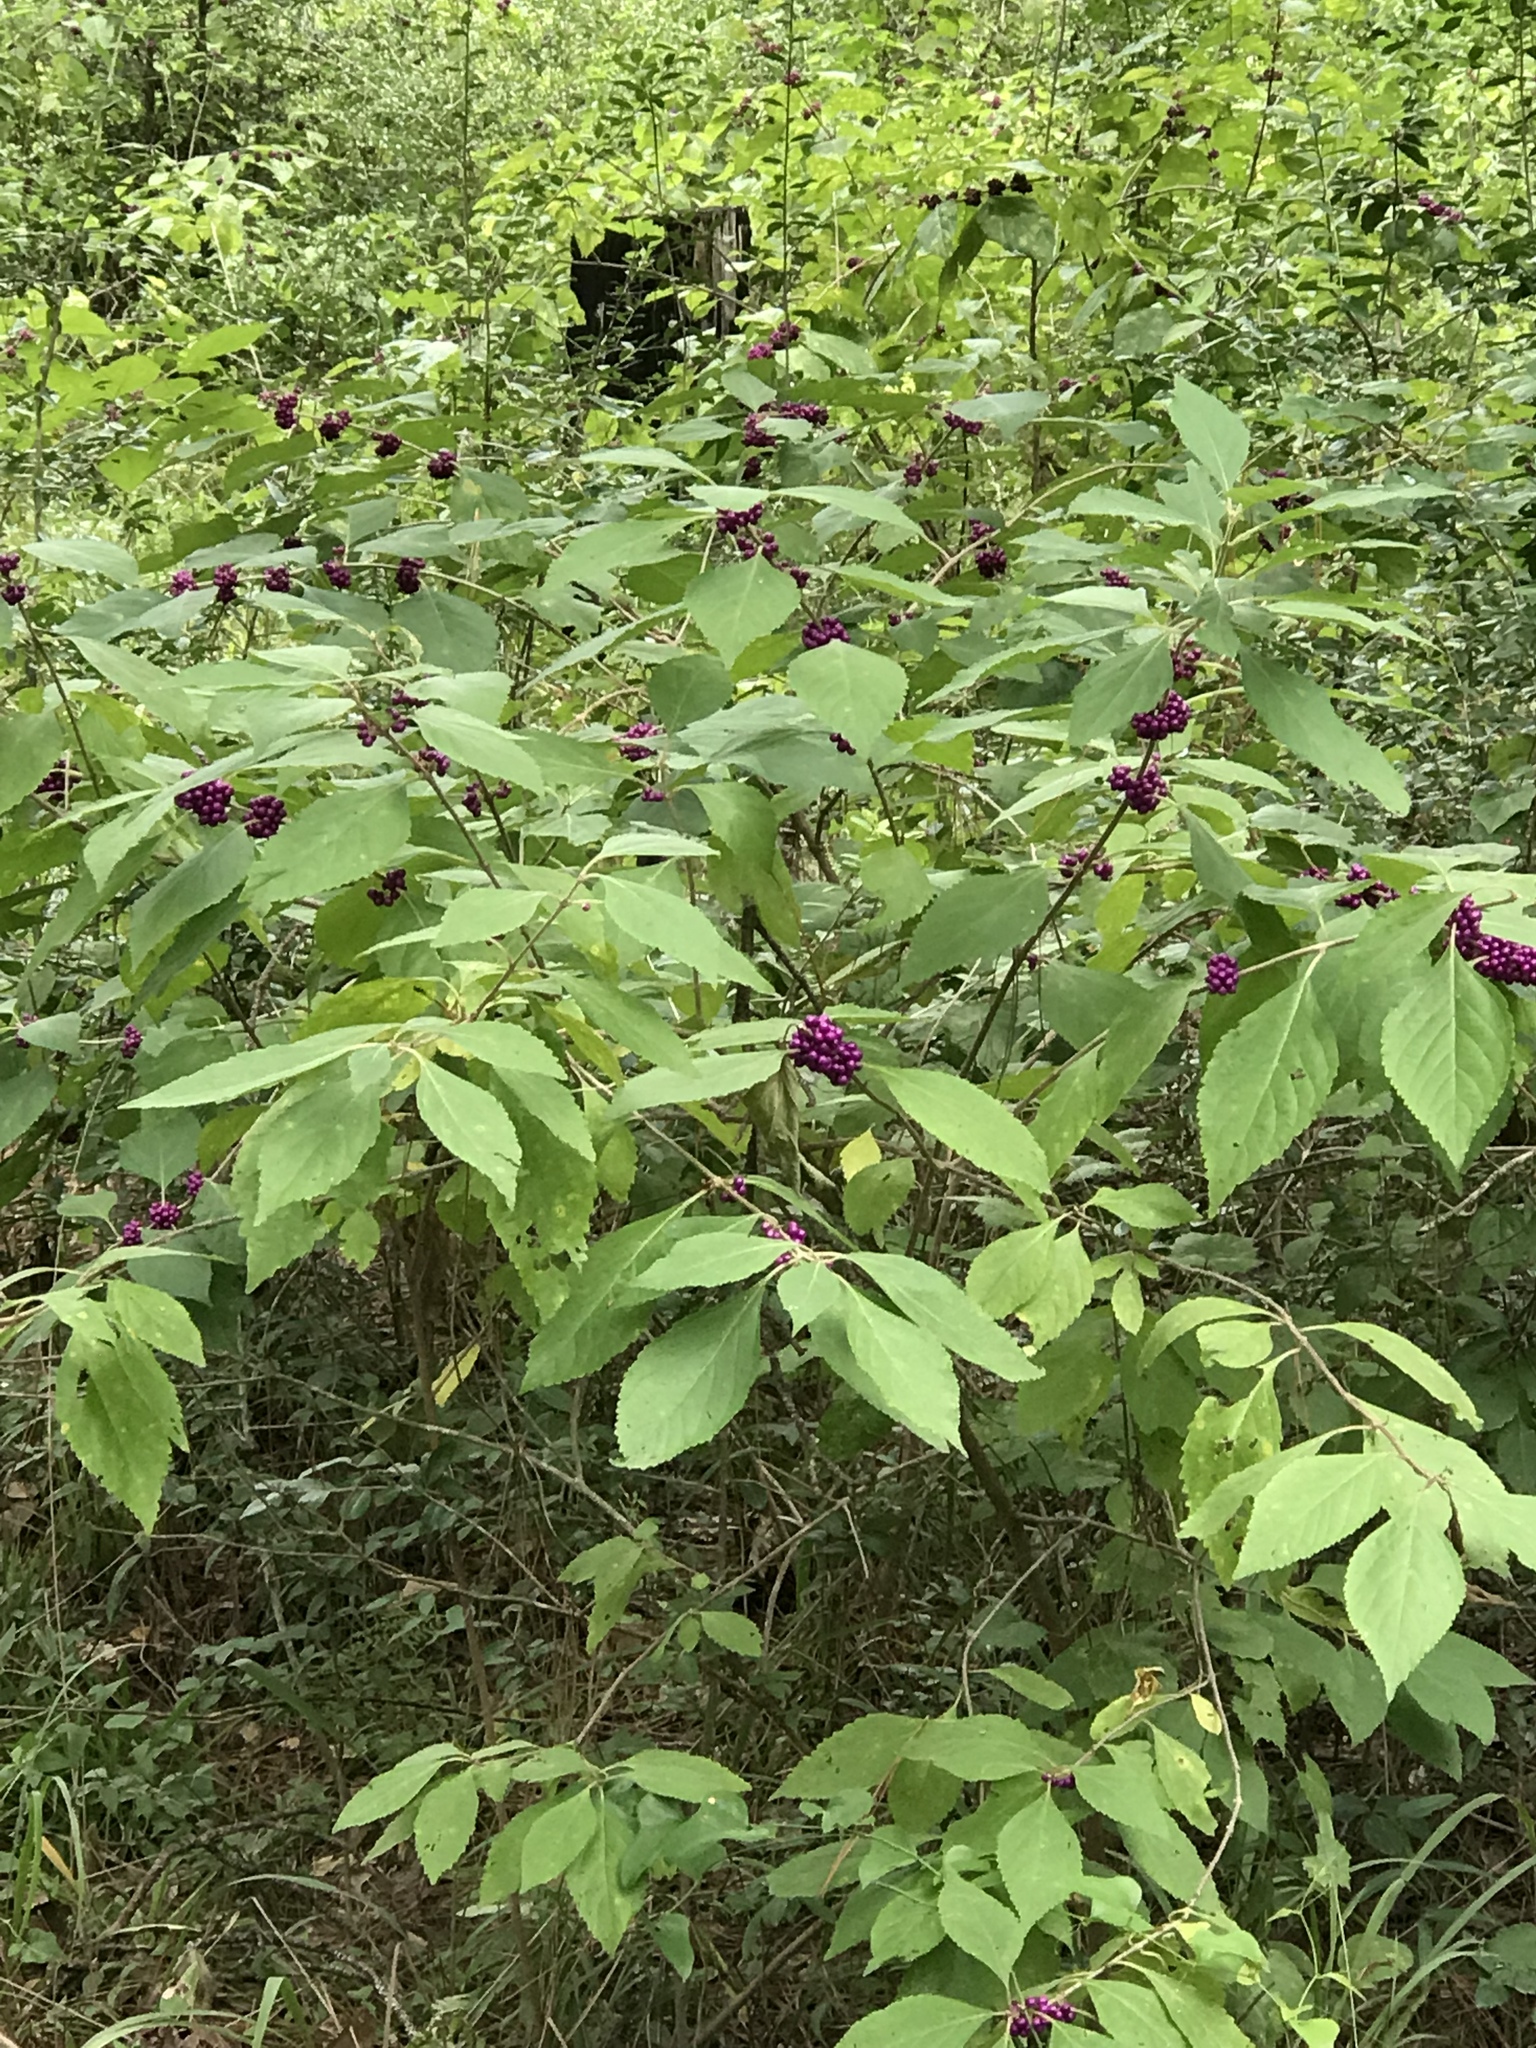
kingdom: Plantae
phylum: Tracheophyta
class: Magnoliopsida
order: Lamiales
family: Lamiaceae
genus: Callicarpa
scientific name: Callicarpa americana
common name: American beautyberry
